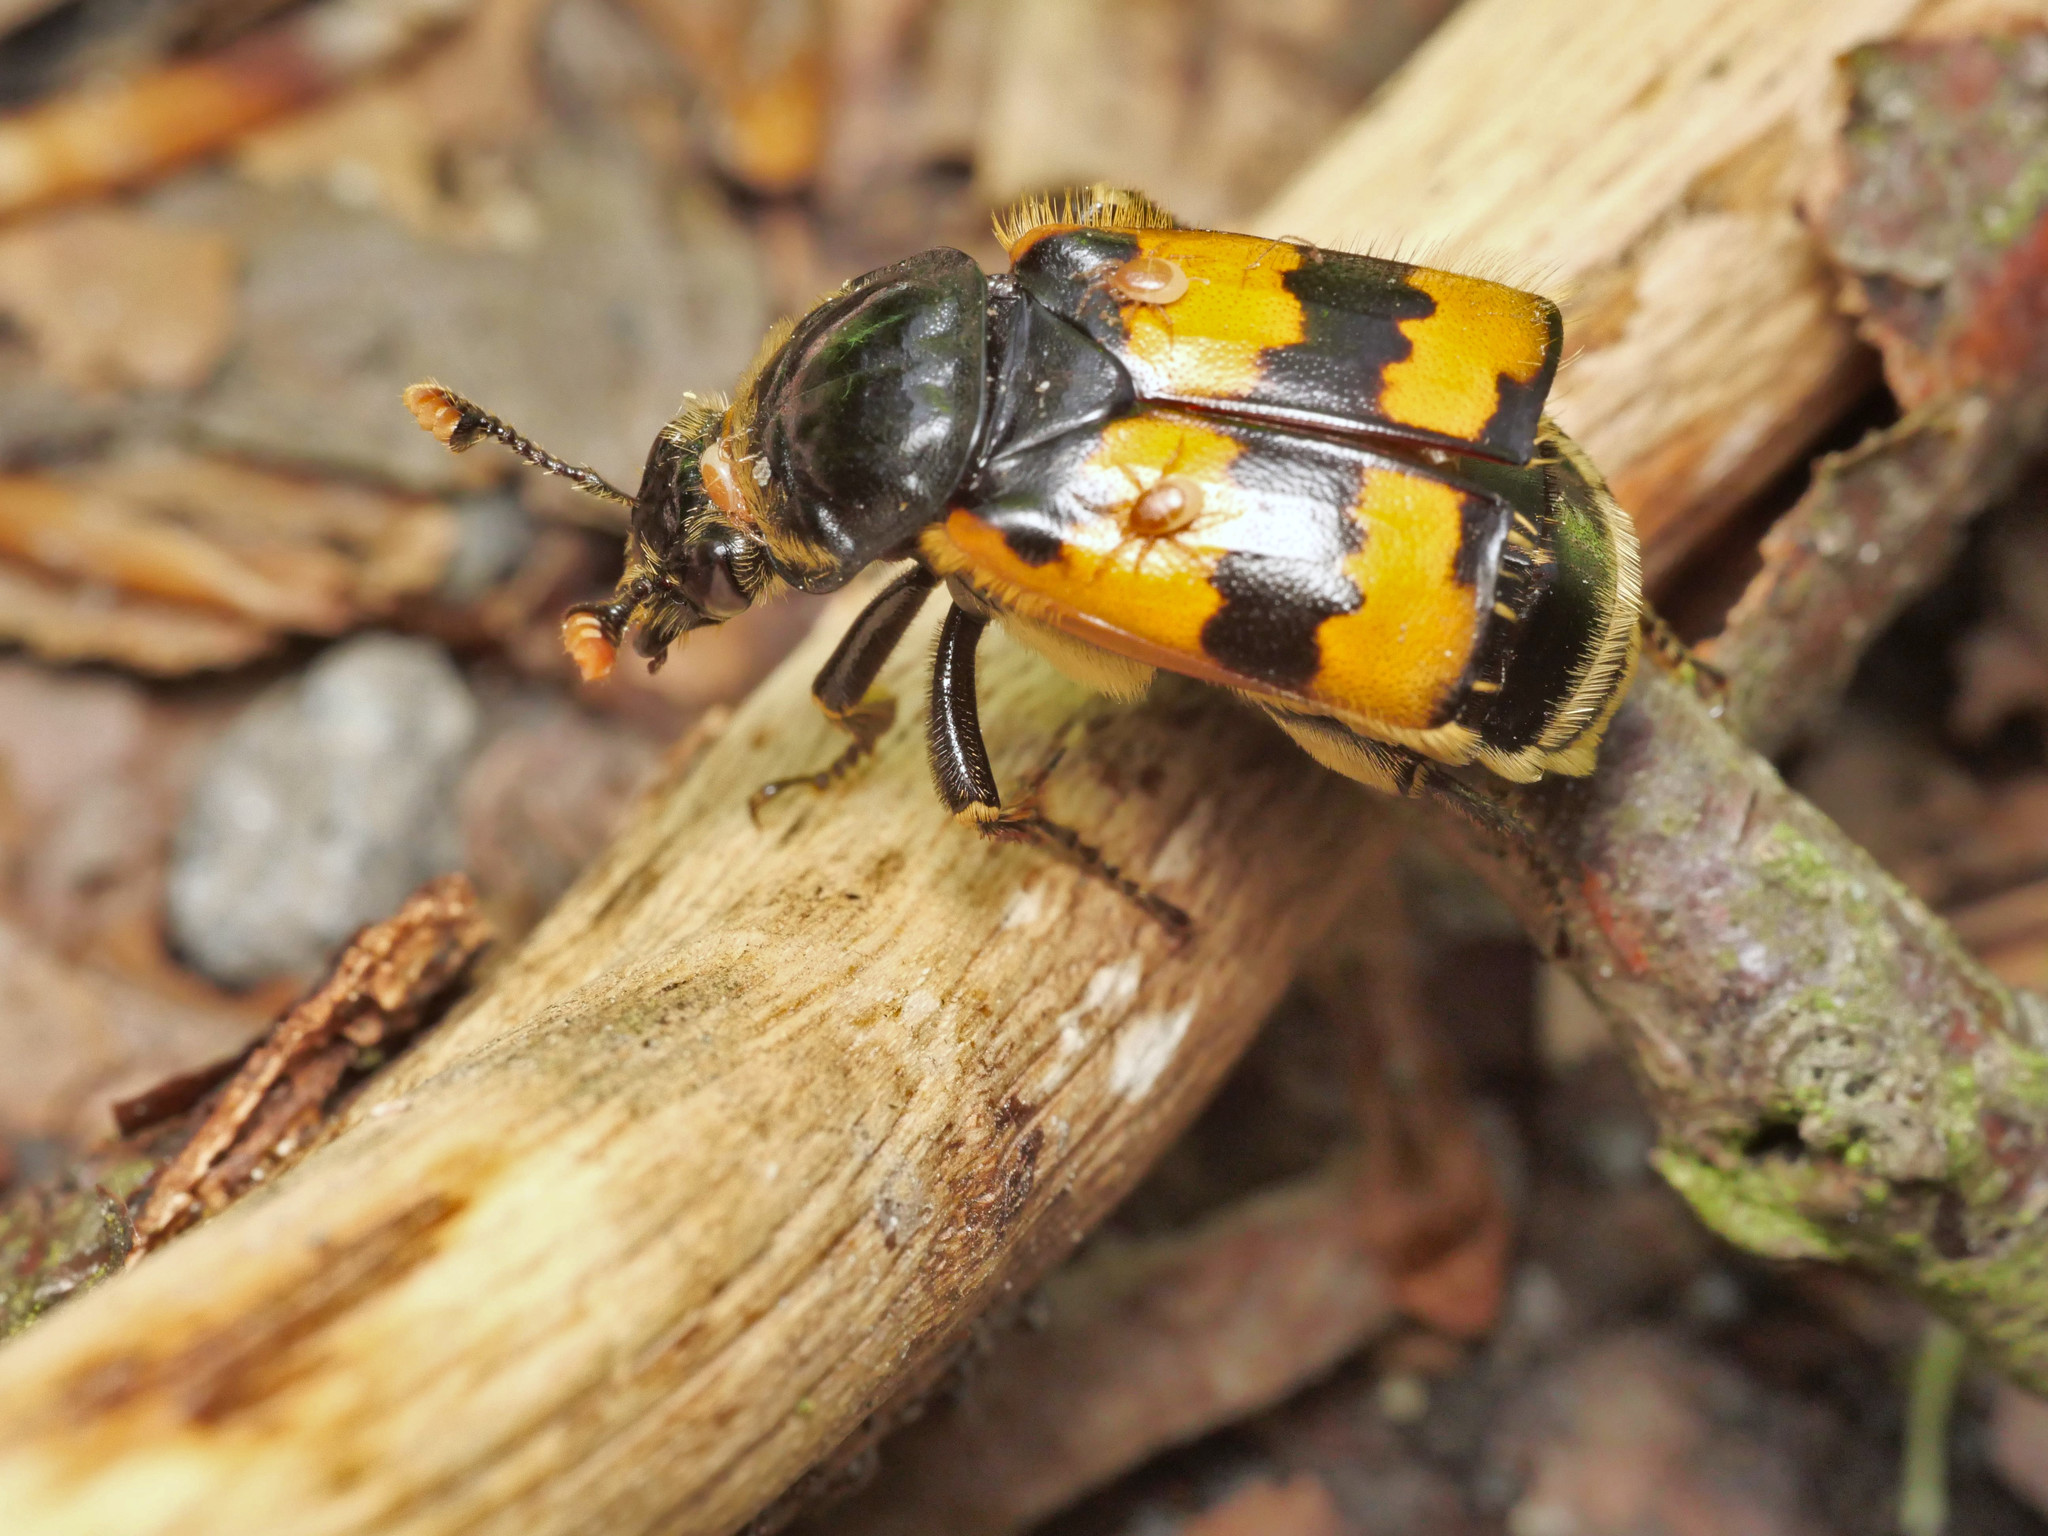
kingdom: Animalia
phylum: Arthropoda
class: Insecta
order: Coleoptera
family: Staphylinidae
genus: Nicrophorus
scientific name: Nicrophorus vespillo
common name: Common burying beetle
